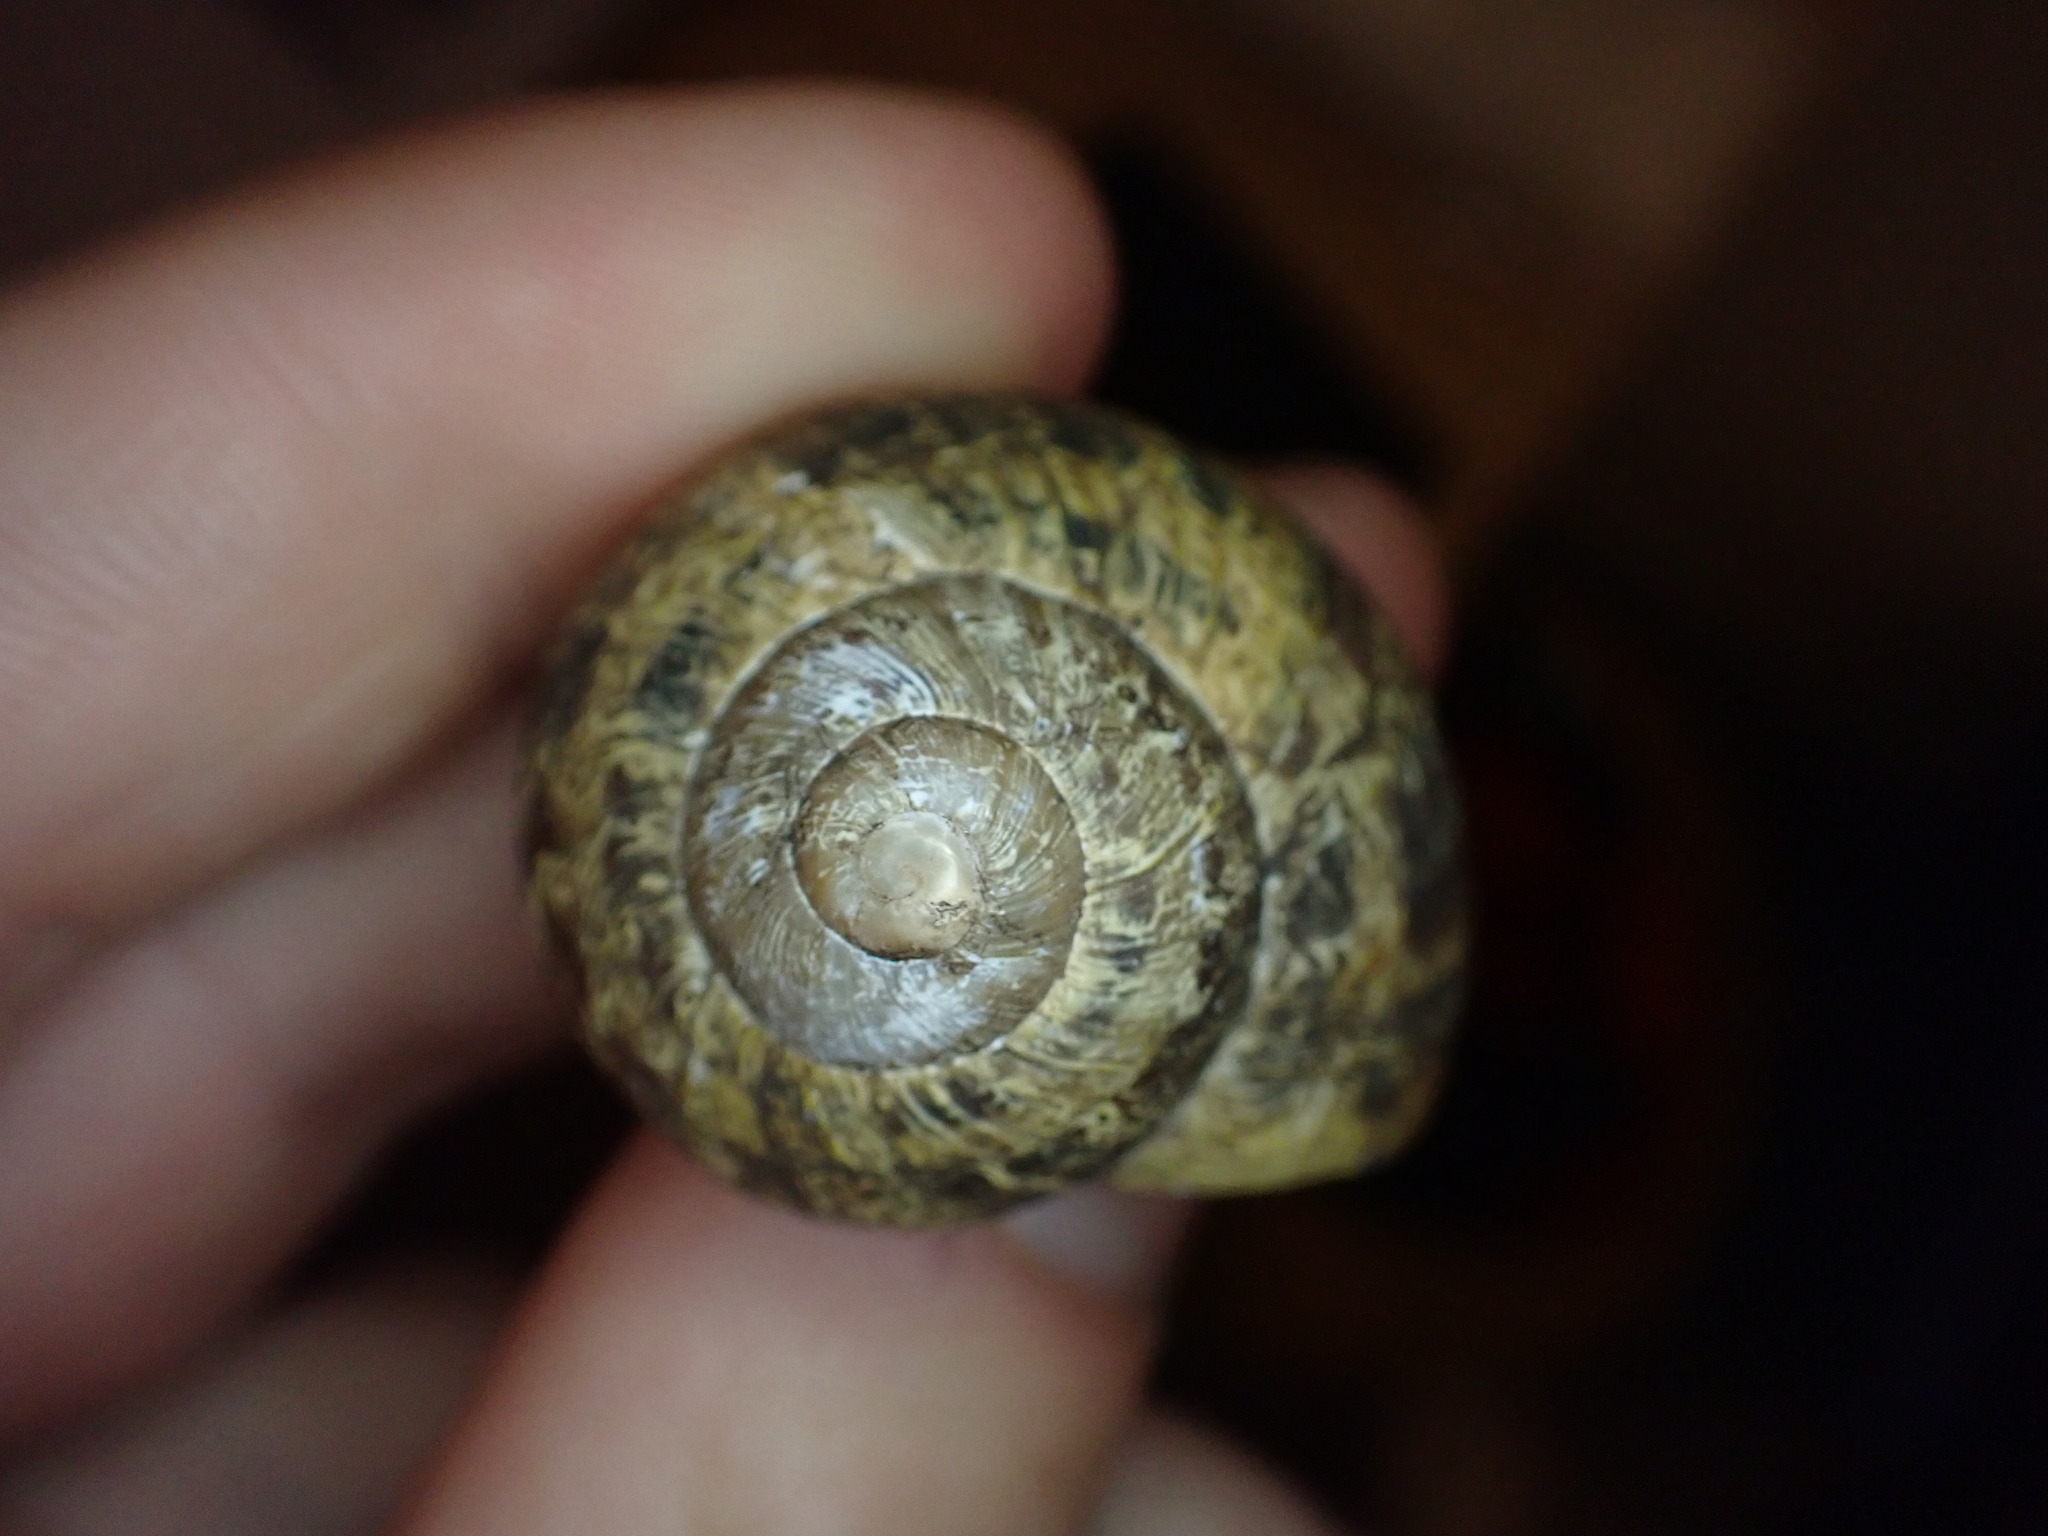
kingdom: Animalia
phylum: Mollusca
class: Gastropoda
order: Stylommatophora
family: Helicidae
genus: Cornu
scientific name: Cornu aspersum
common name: Brown garden snail
